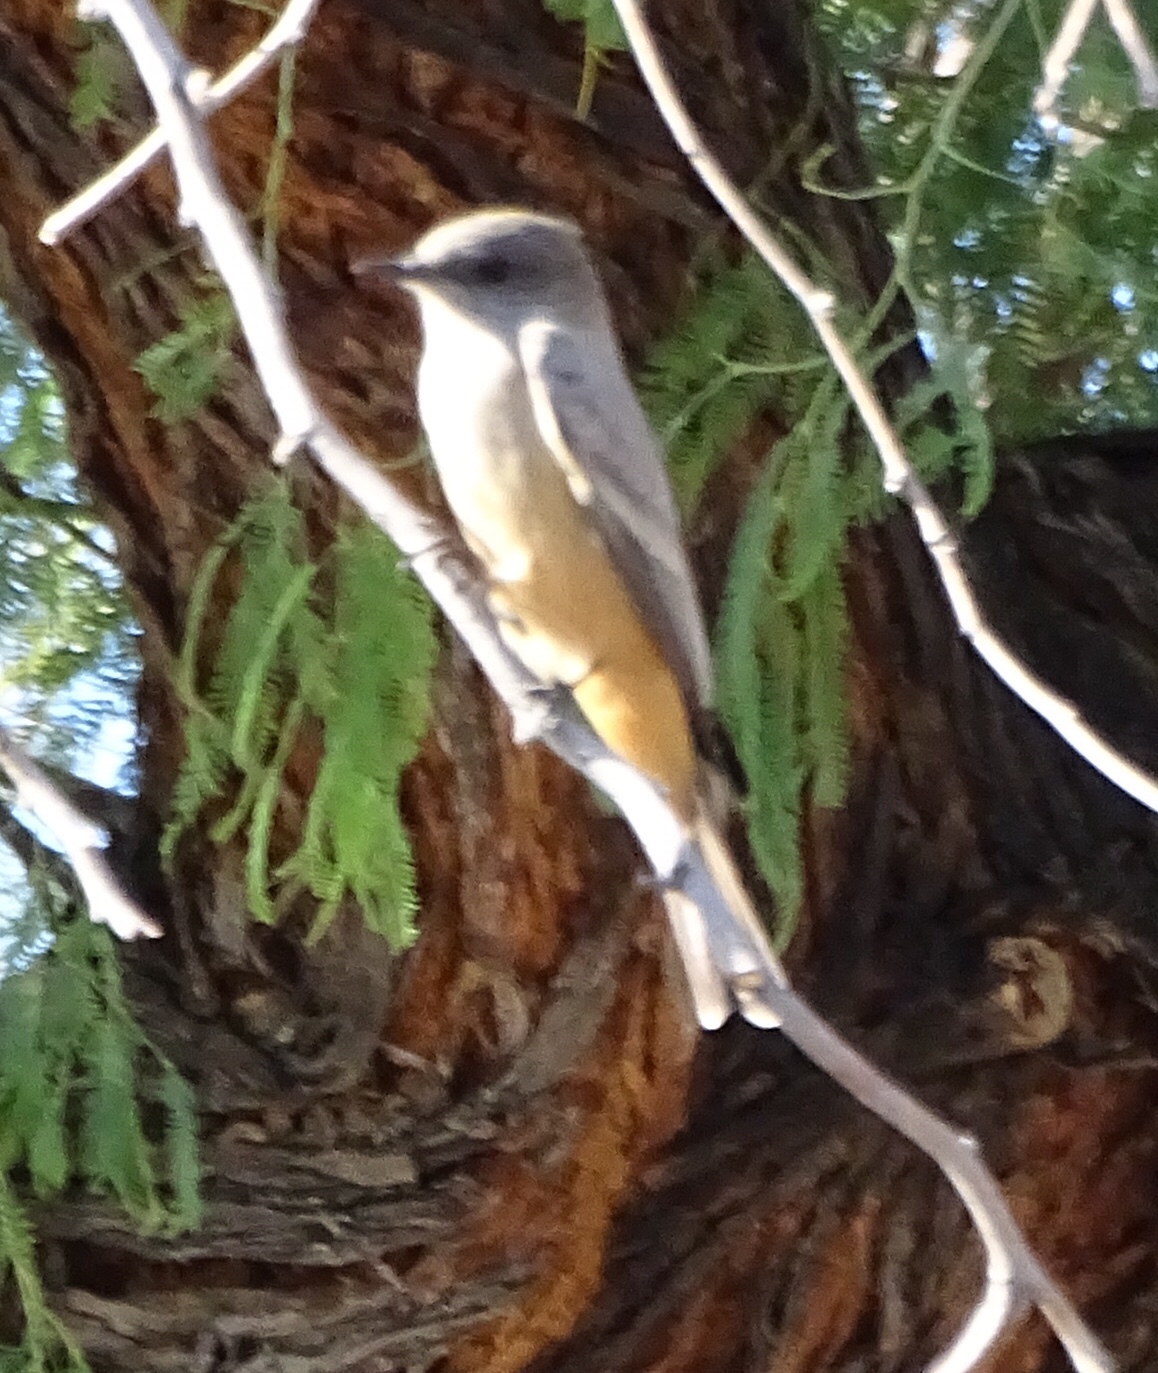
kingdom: Animalia
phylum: Chordata
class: Aves
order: Passeriformes
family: Tyrannidae
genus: Sayornis
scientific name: Sayornis saya
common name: Say's phoebe
